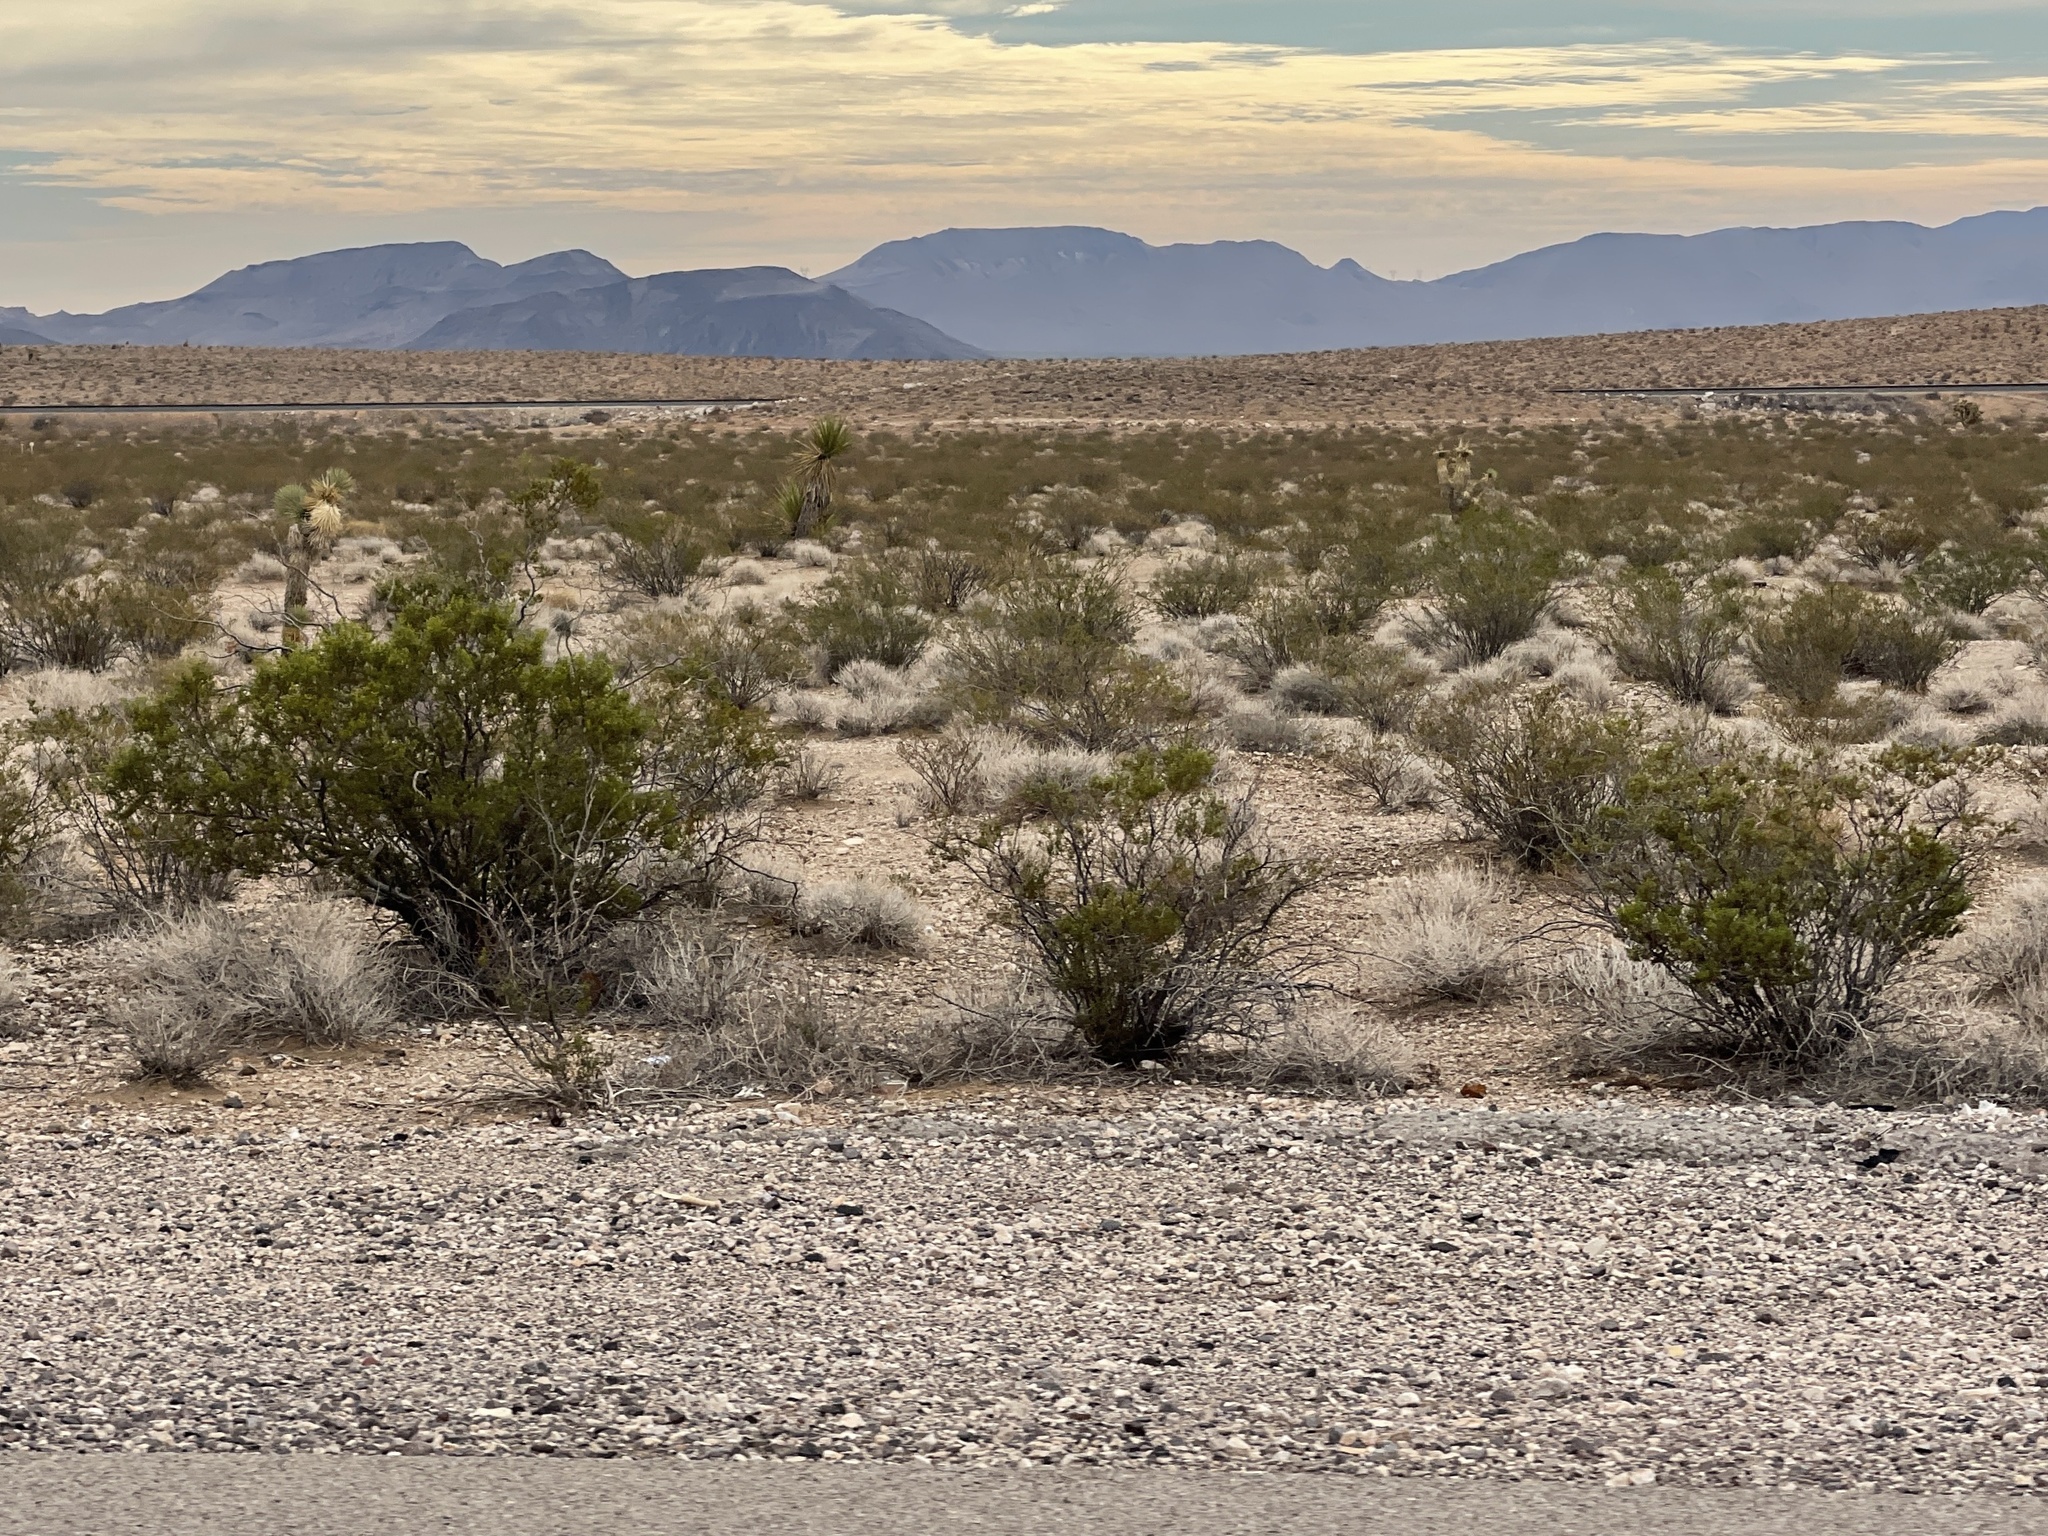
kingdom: Plantae
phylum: Tracheophyta
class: Magnoliopsida
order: Zygophyllales
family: Zygophyllaceae
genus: Larrea
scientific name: Larrea tridentata
